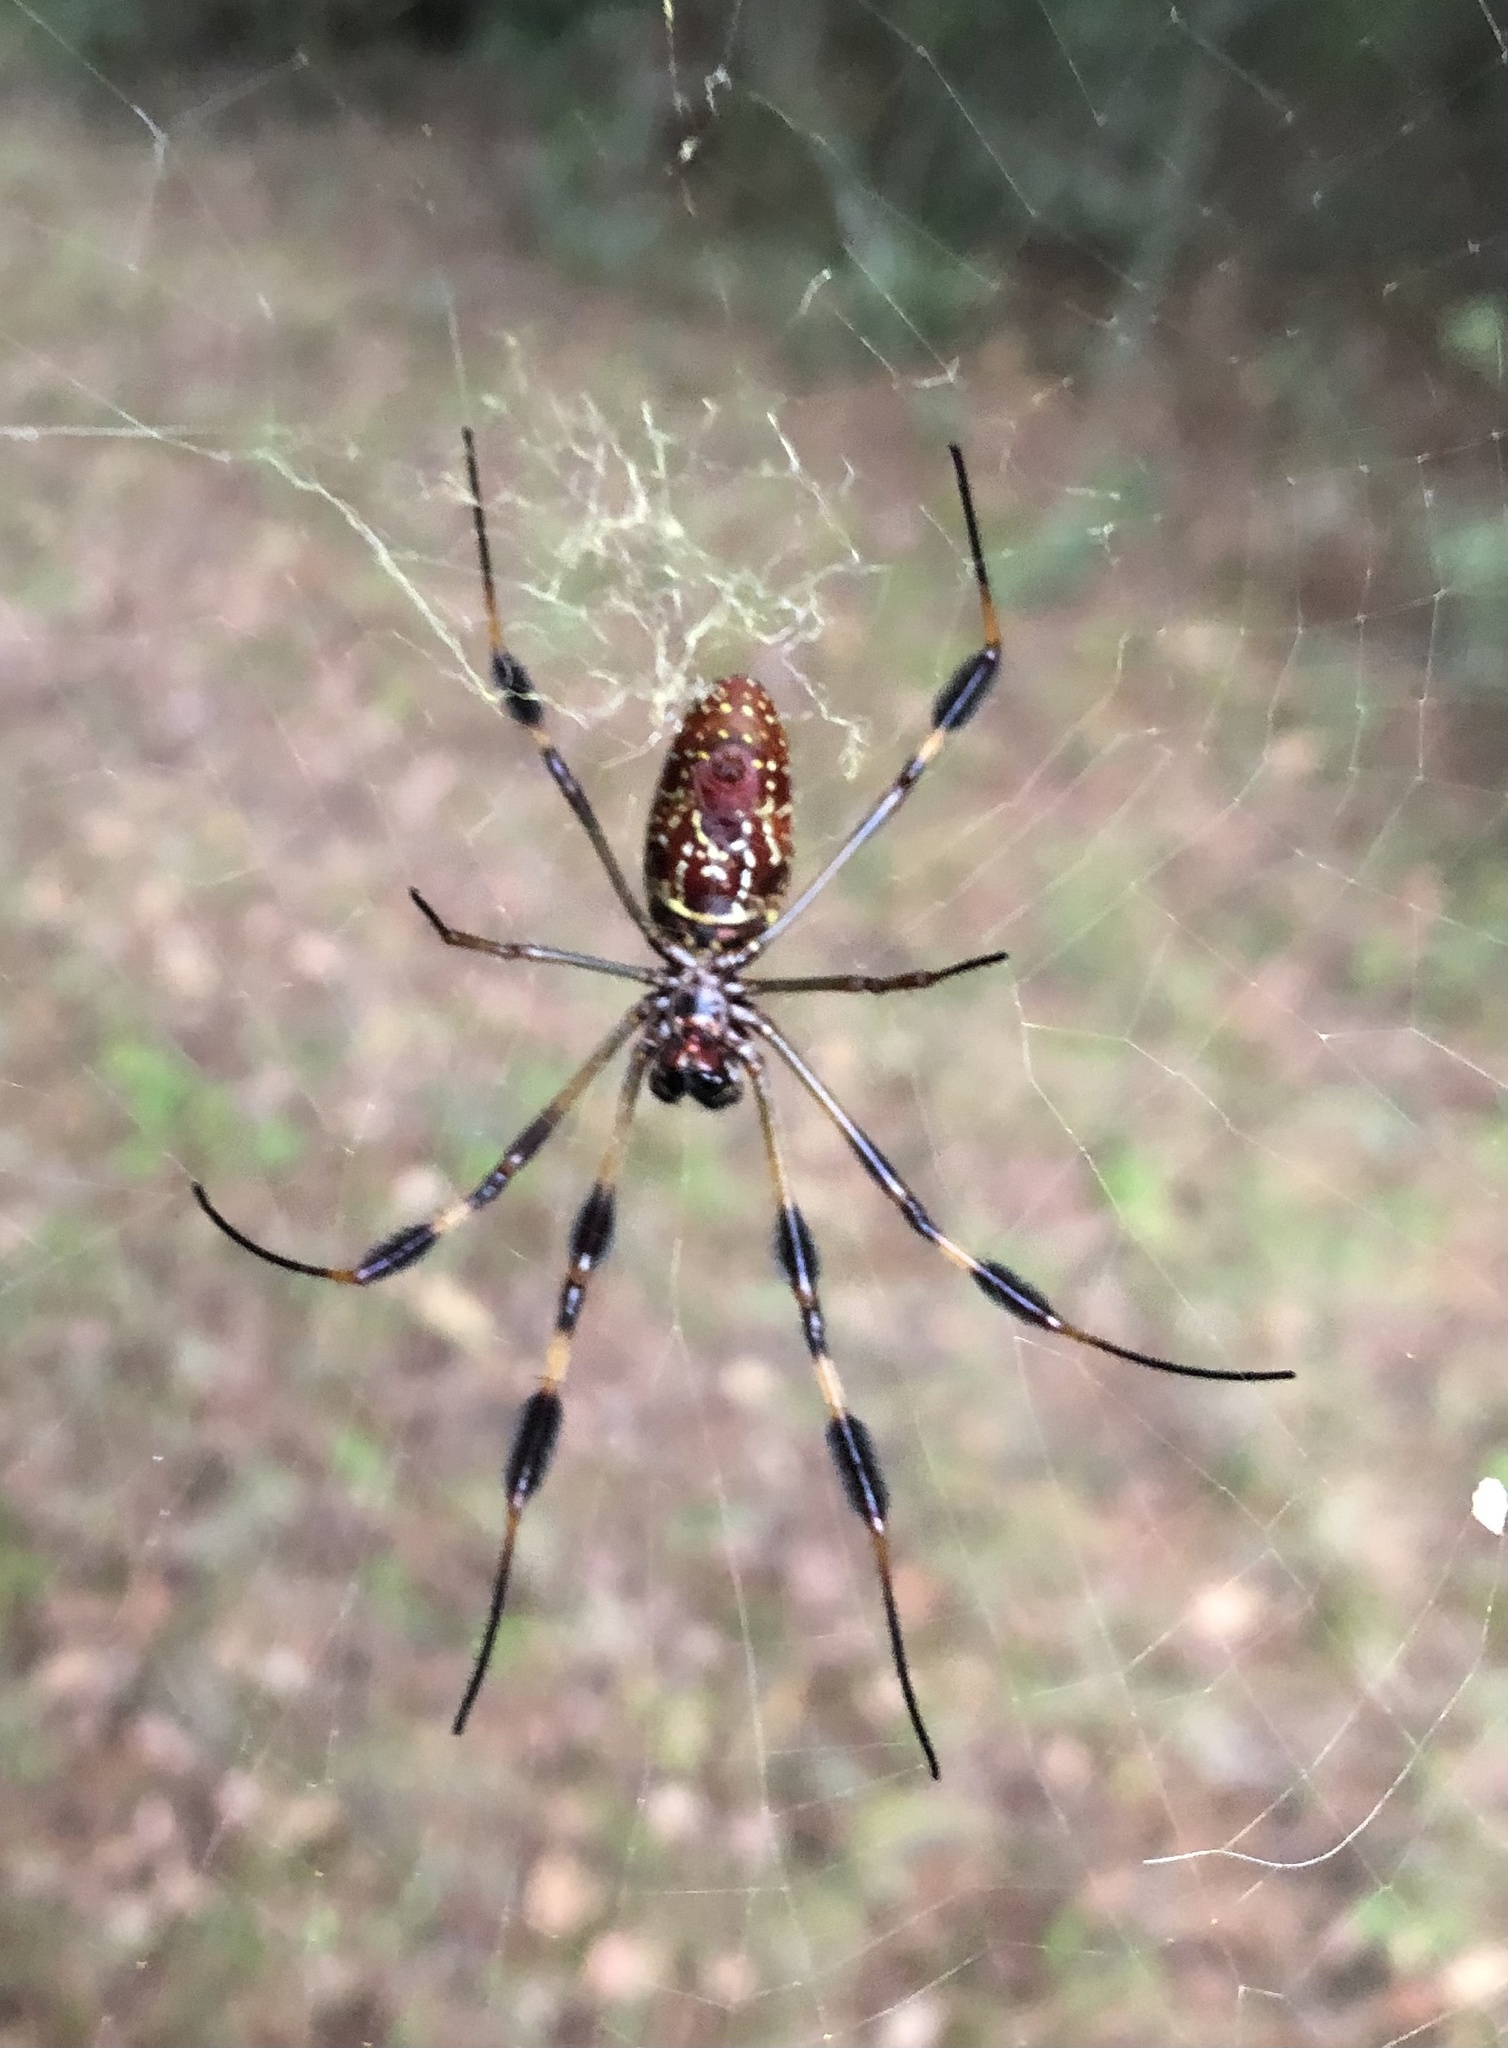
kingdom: Animalia
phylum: Arthropoda
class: Arachnida
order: Araneae
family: Araneidae
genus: Trichonephila
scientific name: Trichonephila clavipes
